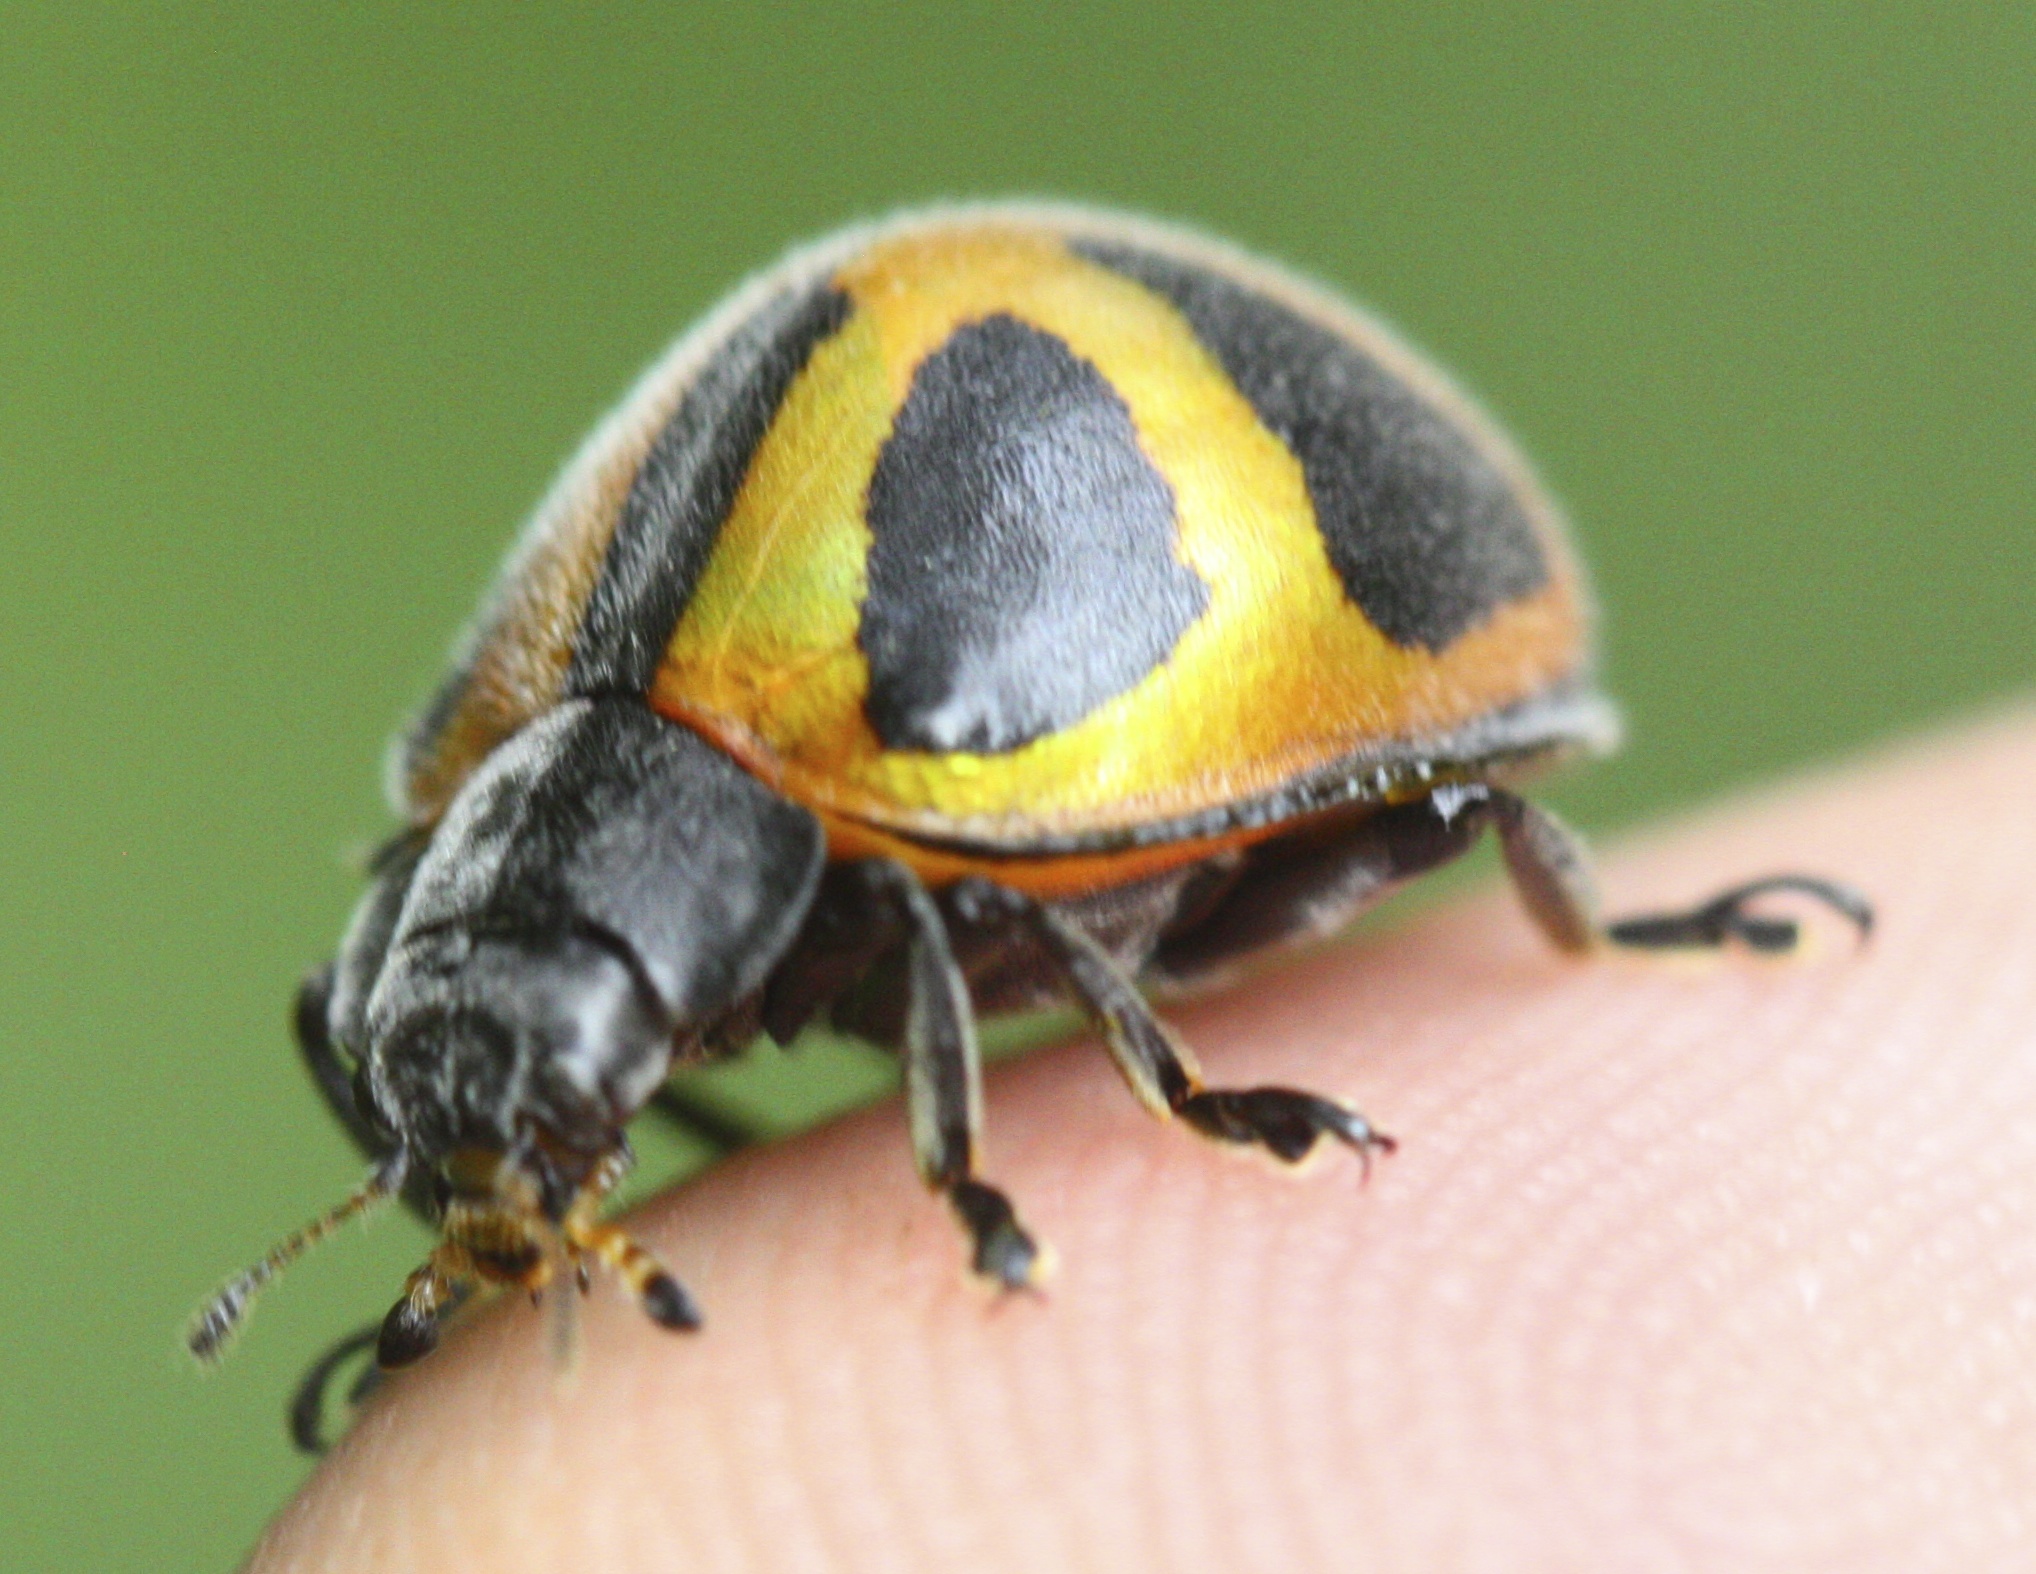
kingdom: Animalia
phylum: Arthropoda
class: Insecta
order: Coleoptera
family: Coccinellidae
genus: Epilachna
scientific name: Epilachna
